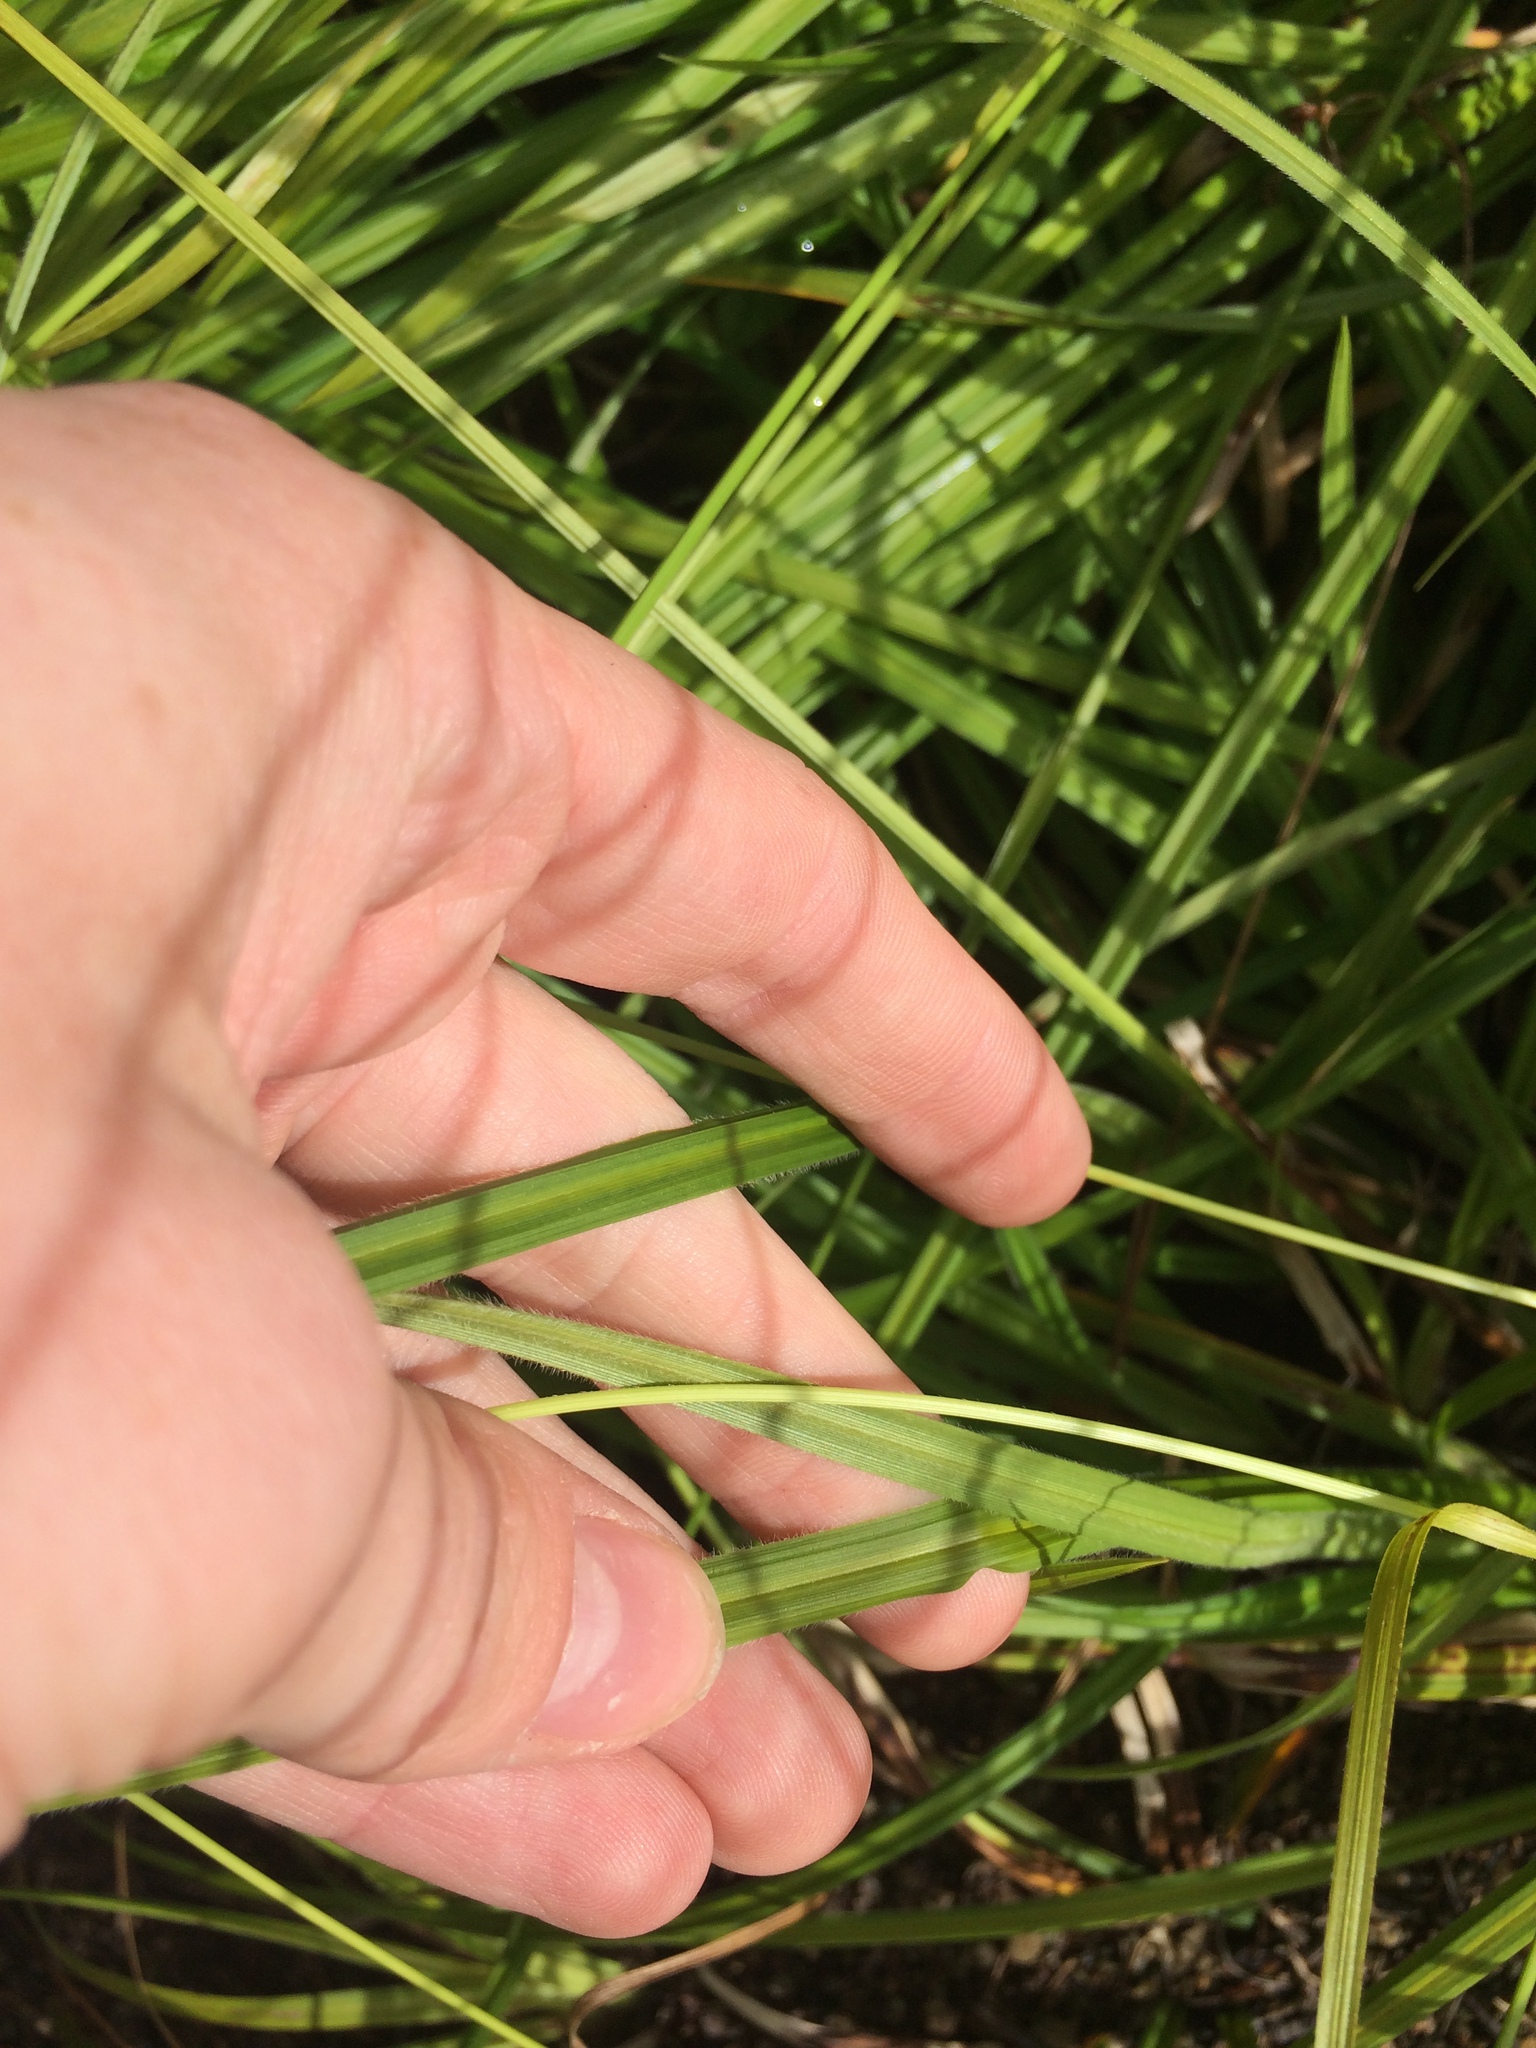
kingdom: Plantae
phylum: Tracheophyta
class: Liliopsida
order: Poales
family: Cyperaceae
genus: Carex
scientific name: Carex castanea
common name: Chestnut sedge
